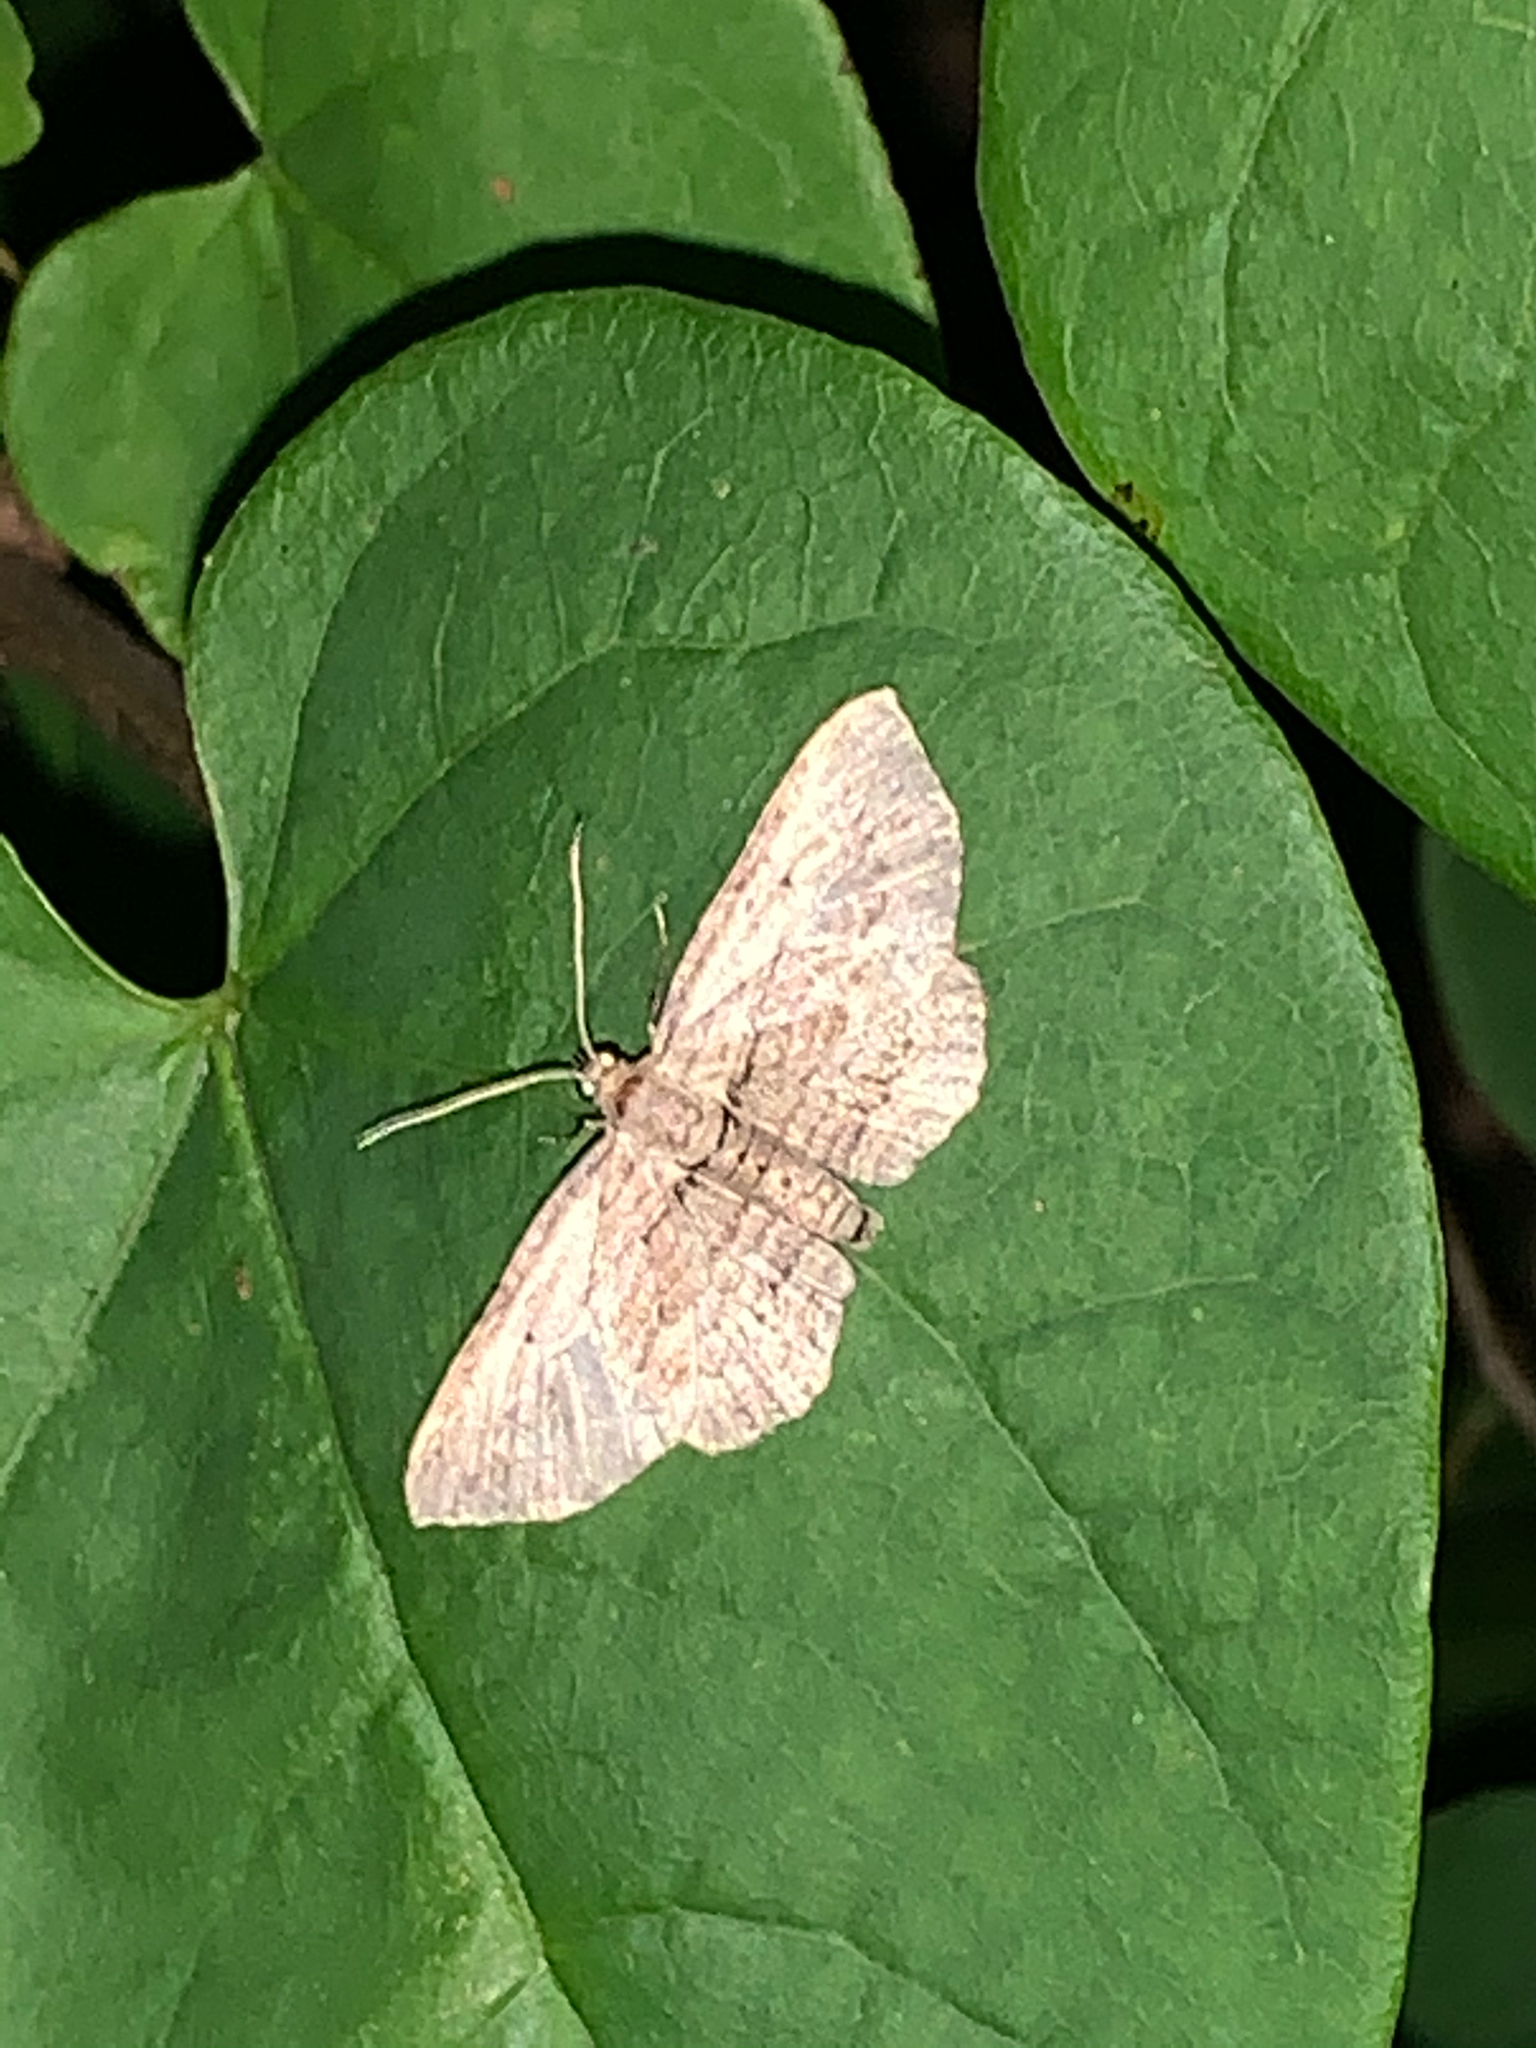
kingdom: Animalia
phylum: Arthropoda
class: Insecta
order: Lepidoptera
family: Geometridae
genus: Horisme
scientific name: Horisme intestinata
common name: Brown bark carpet
